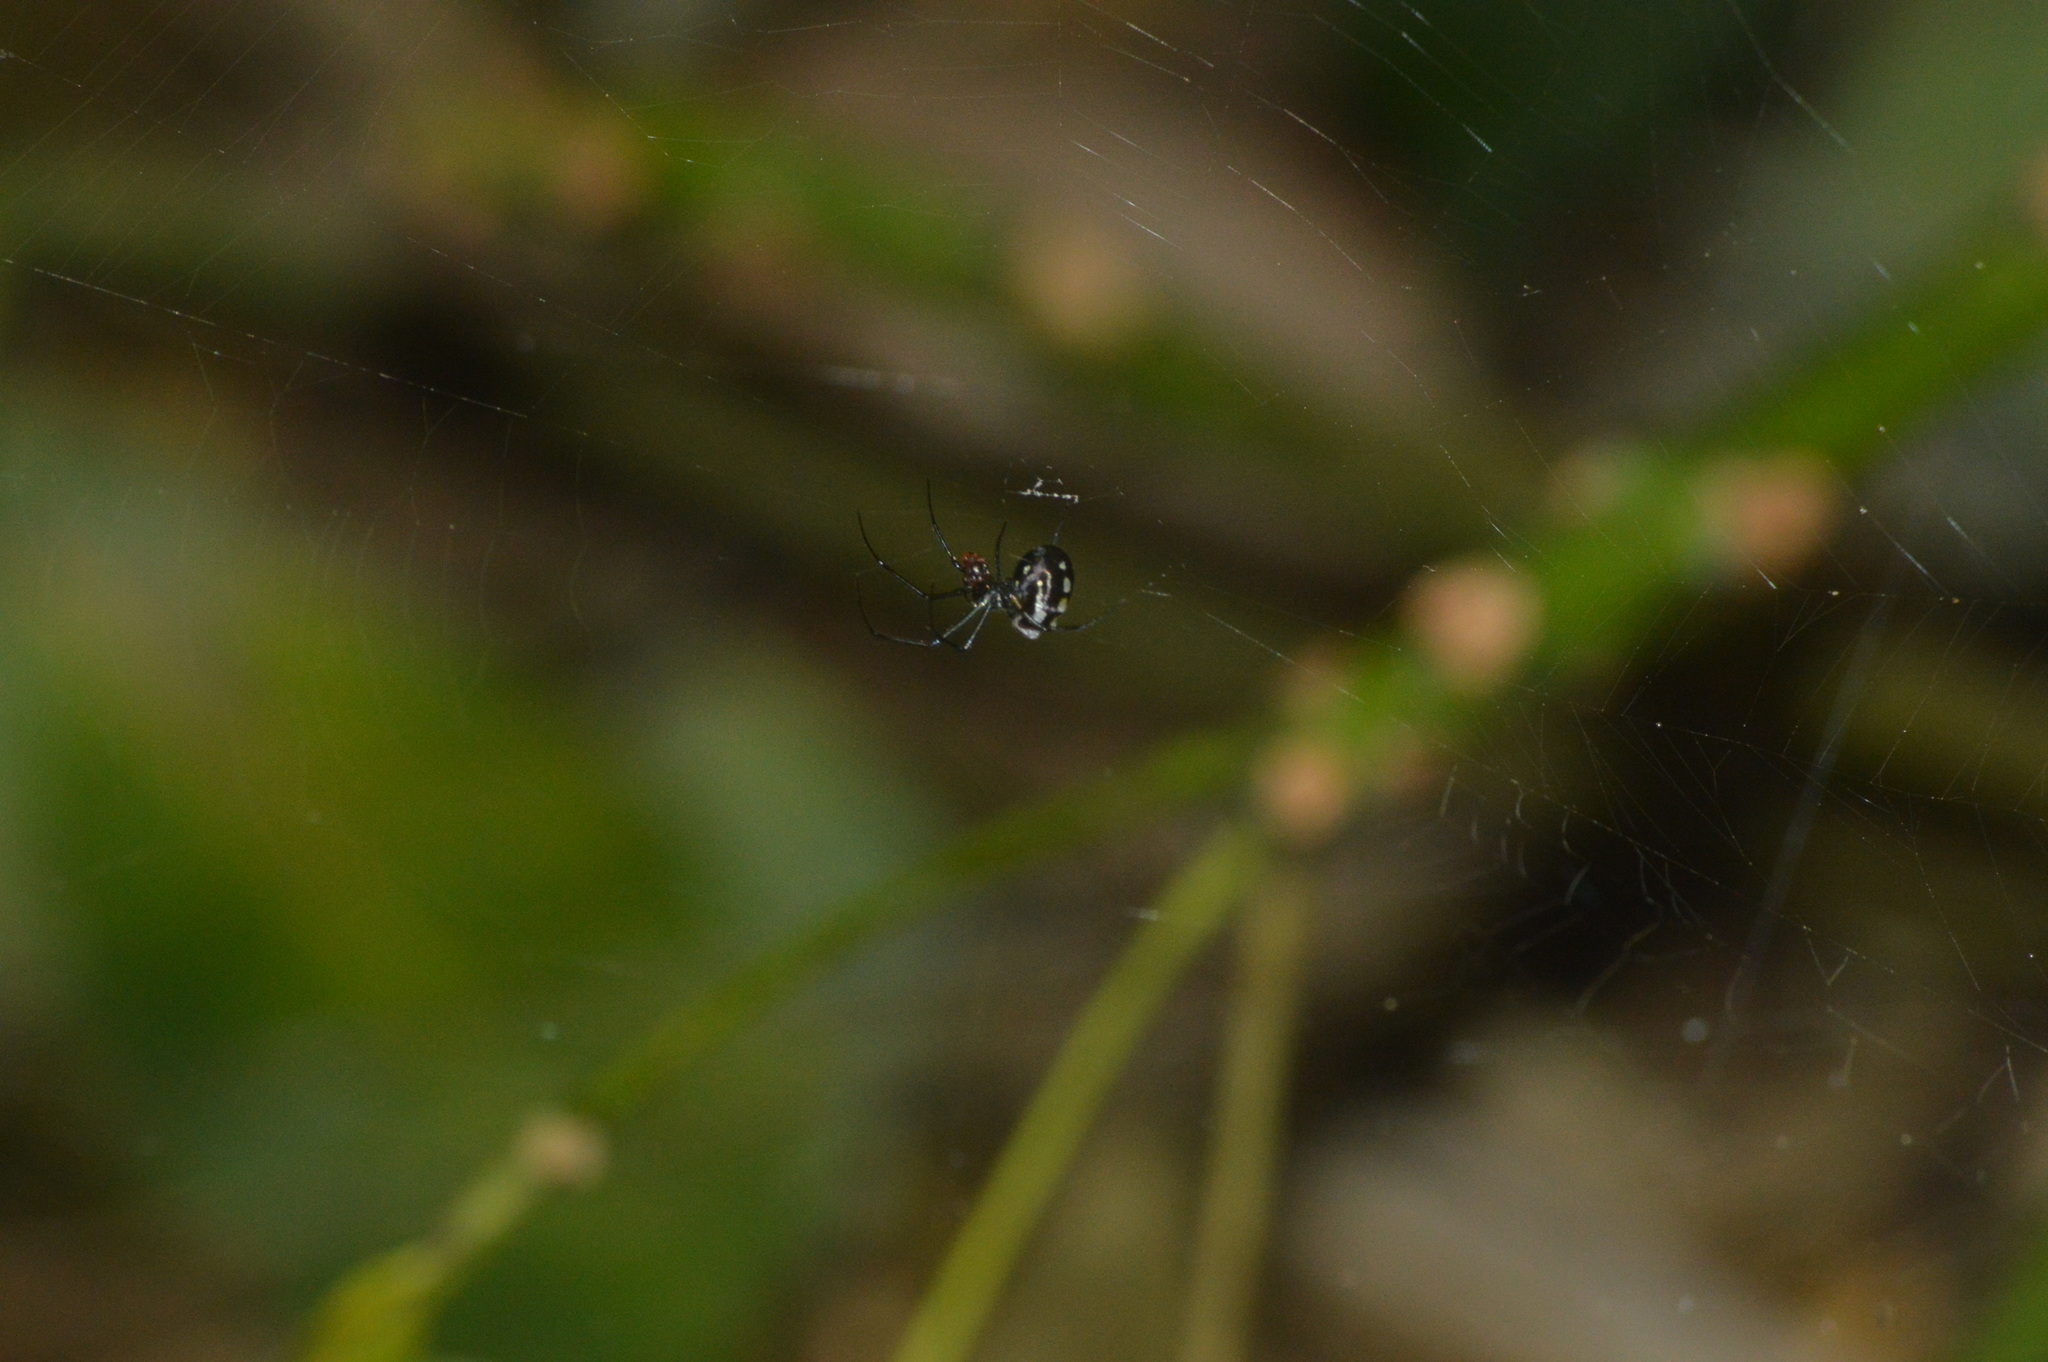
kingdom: Animalia
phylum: Arthropoda
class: Arachnida
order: Araneae
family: Tetragnathidae
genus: Leucauge
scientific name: Leucauge argentina
